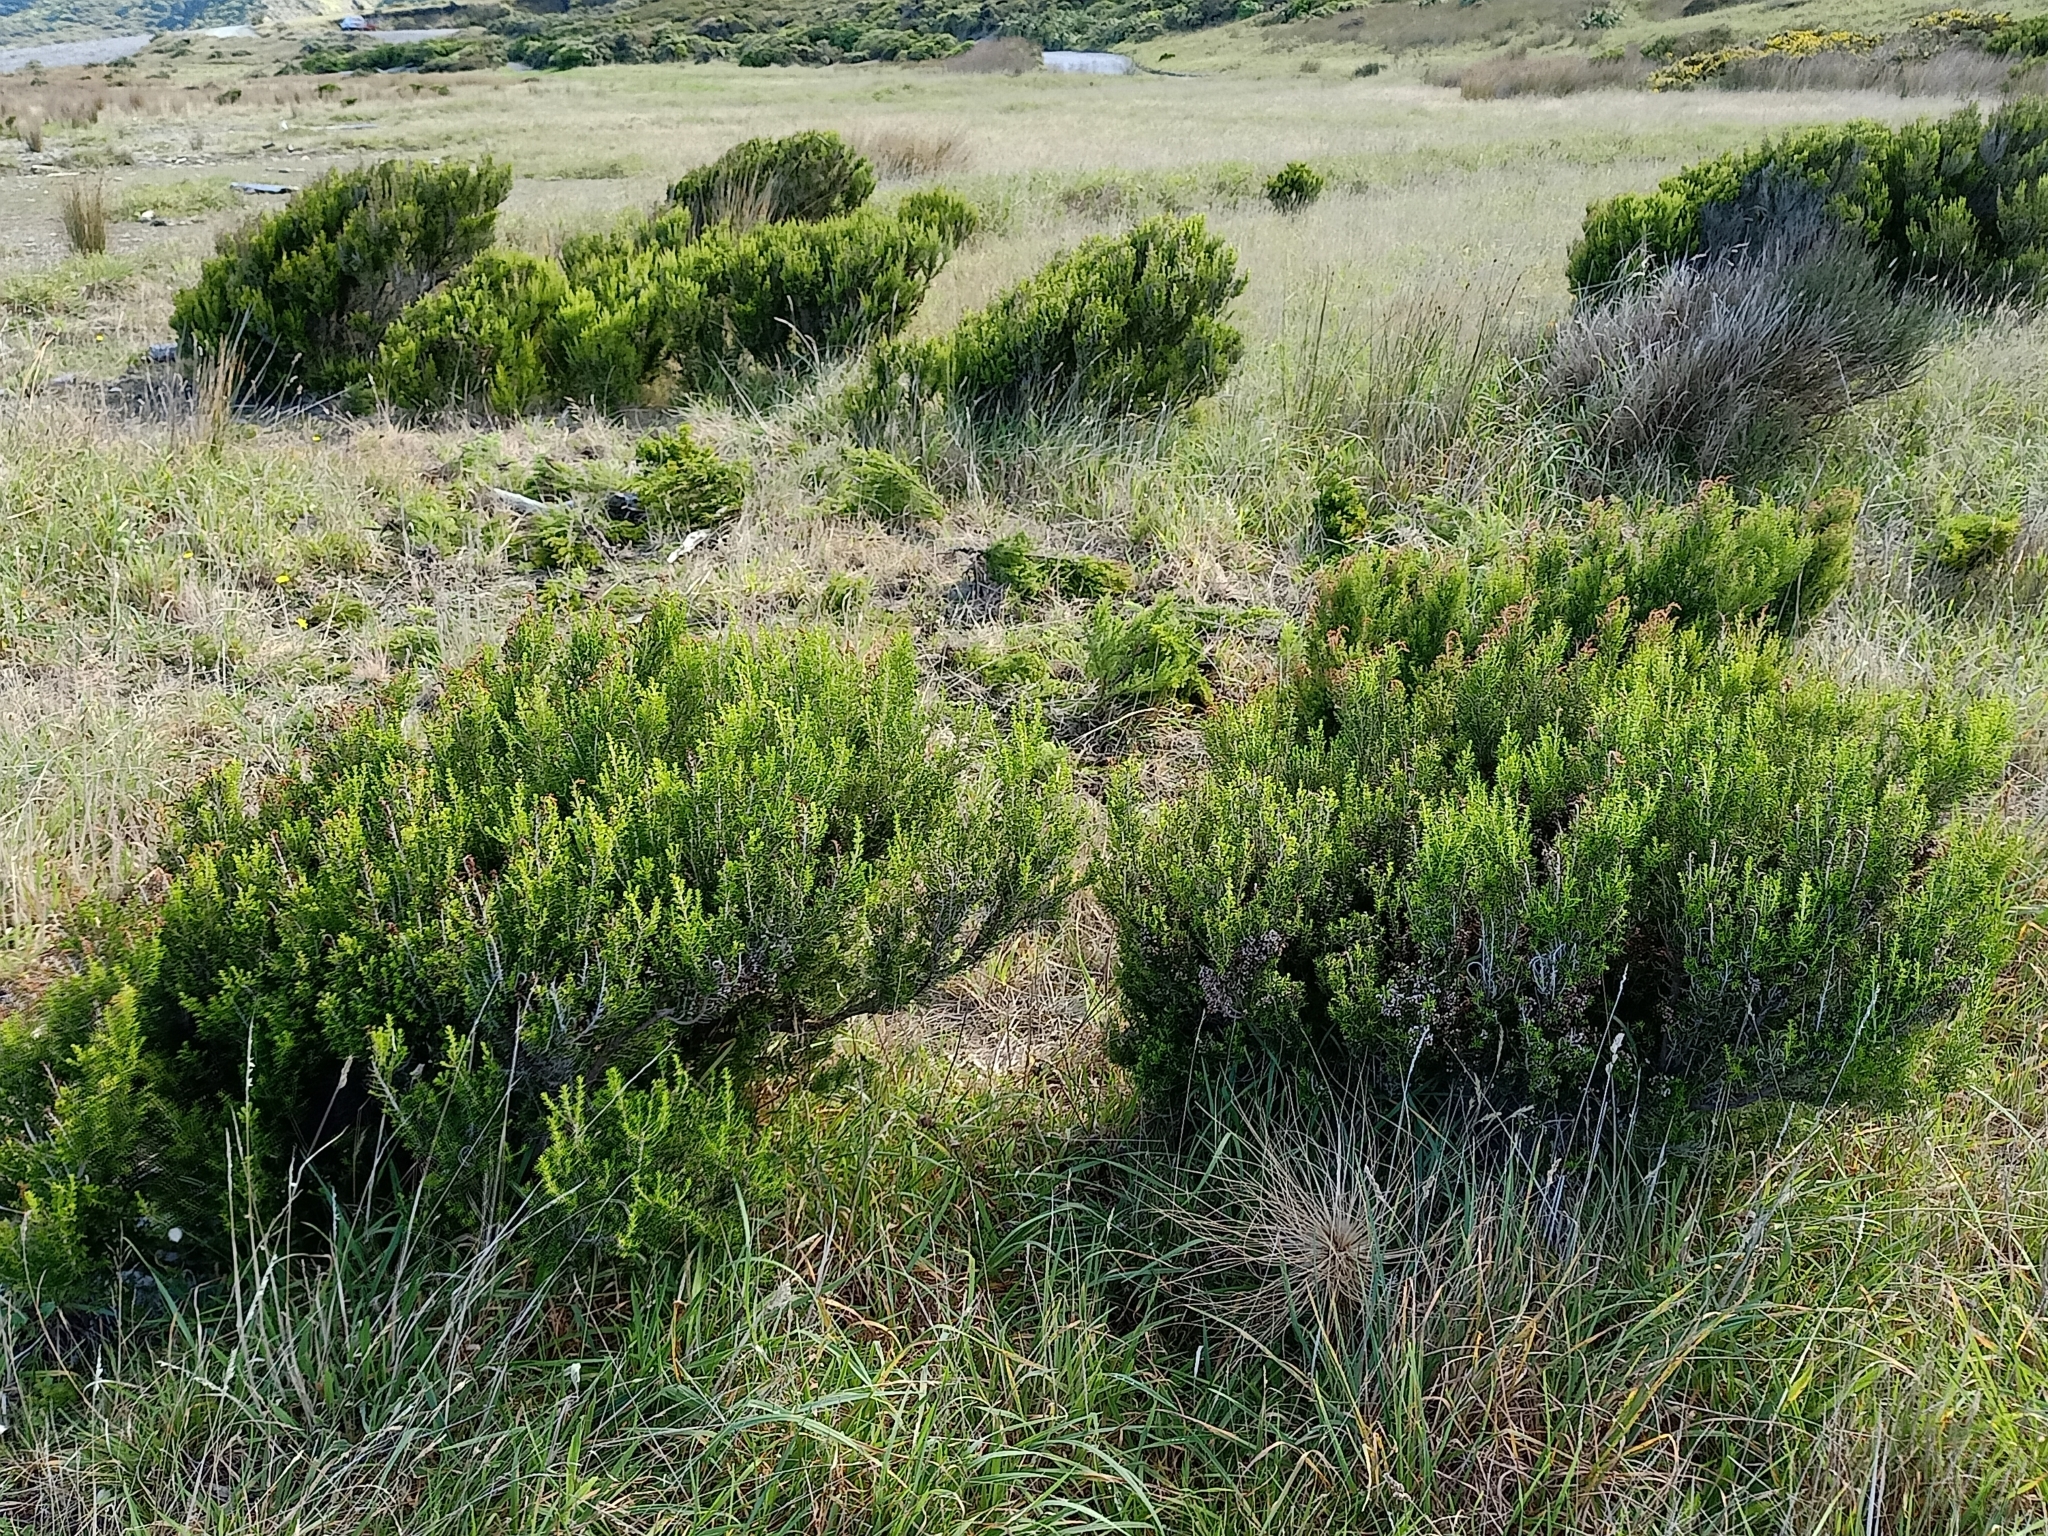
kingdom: Plantae
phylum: Tracheophyta
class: Magnoliopsida
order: Ericales
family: Ericaceae
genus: Erica
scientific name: Erica lusitanica
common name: Spanish heath
